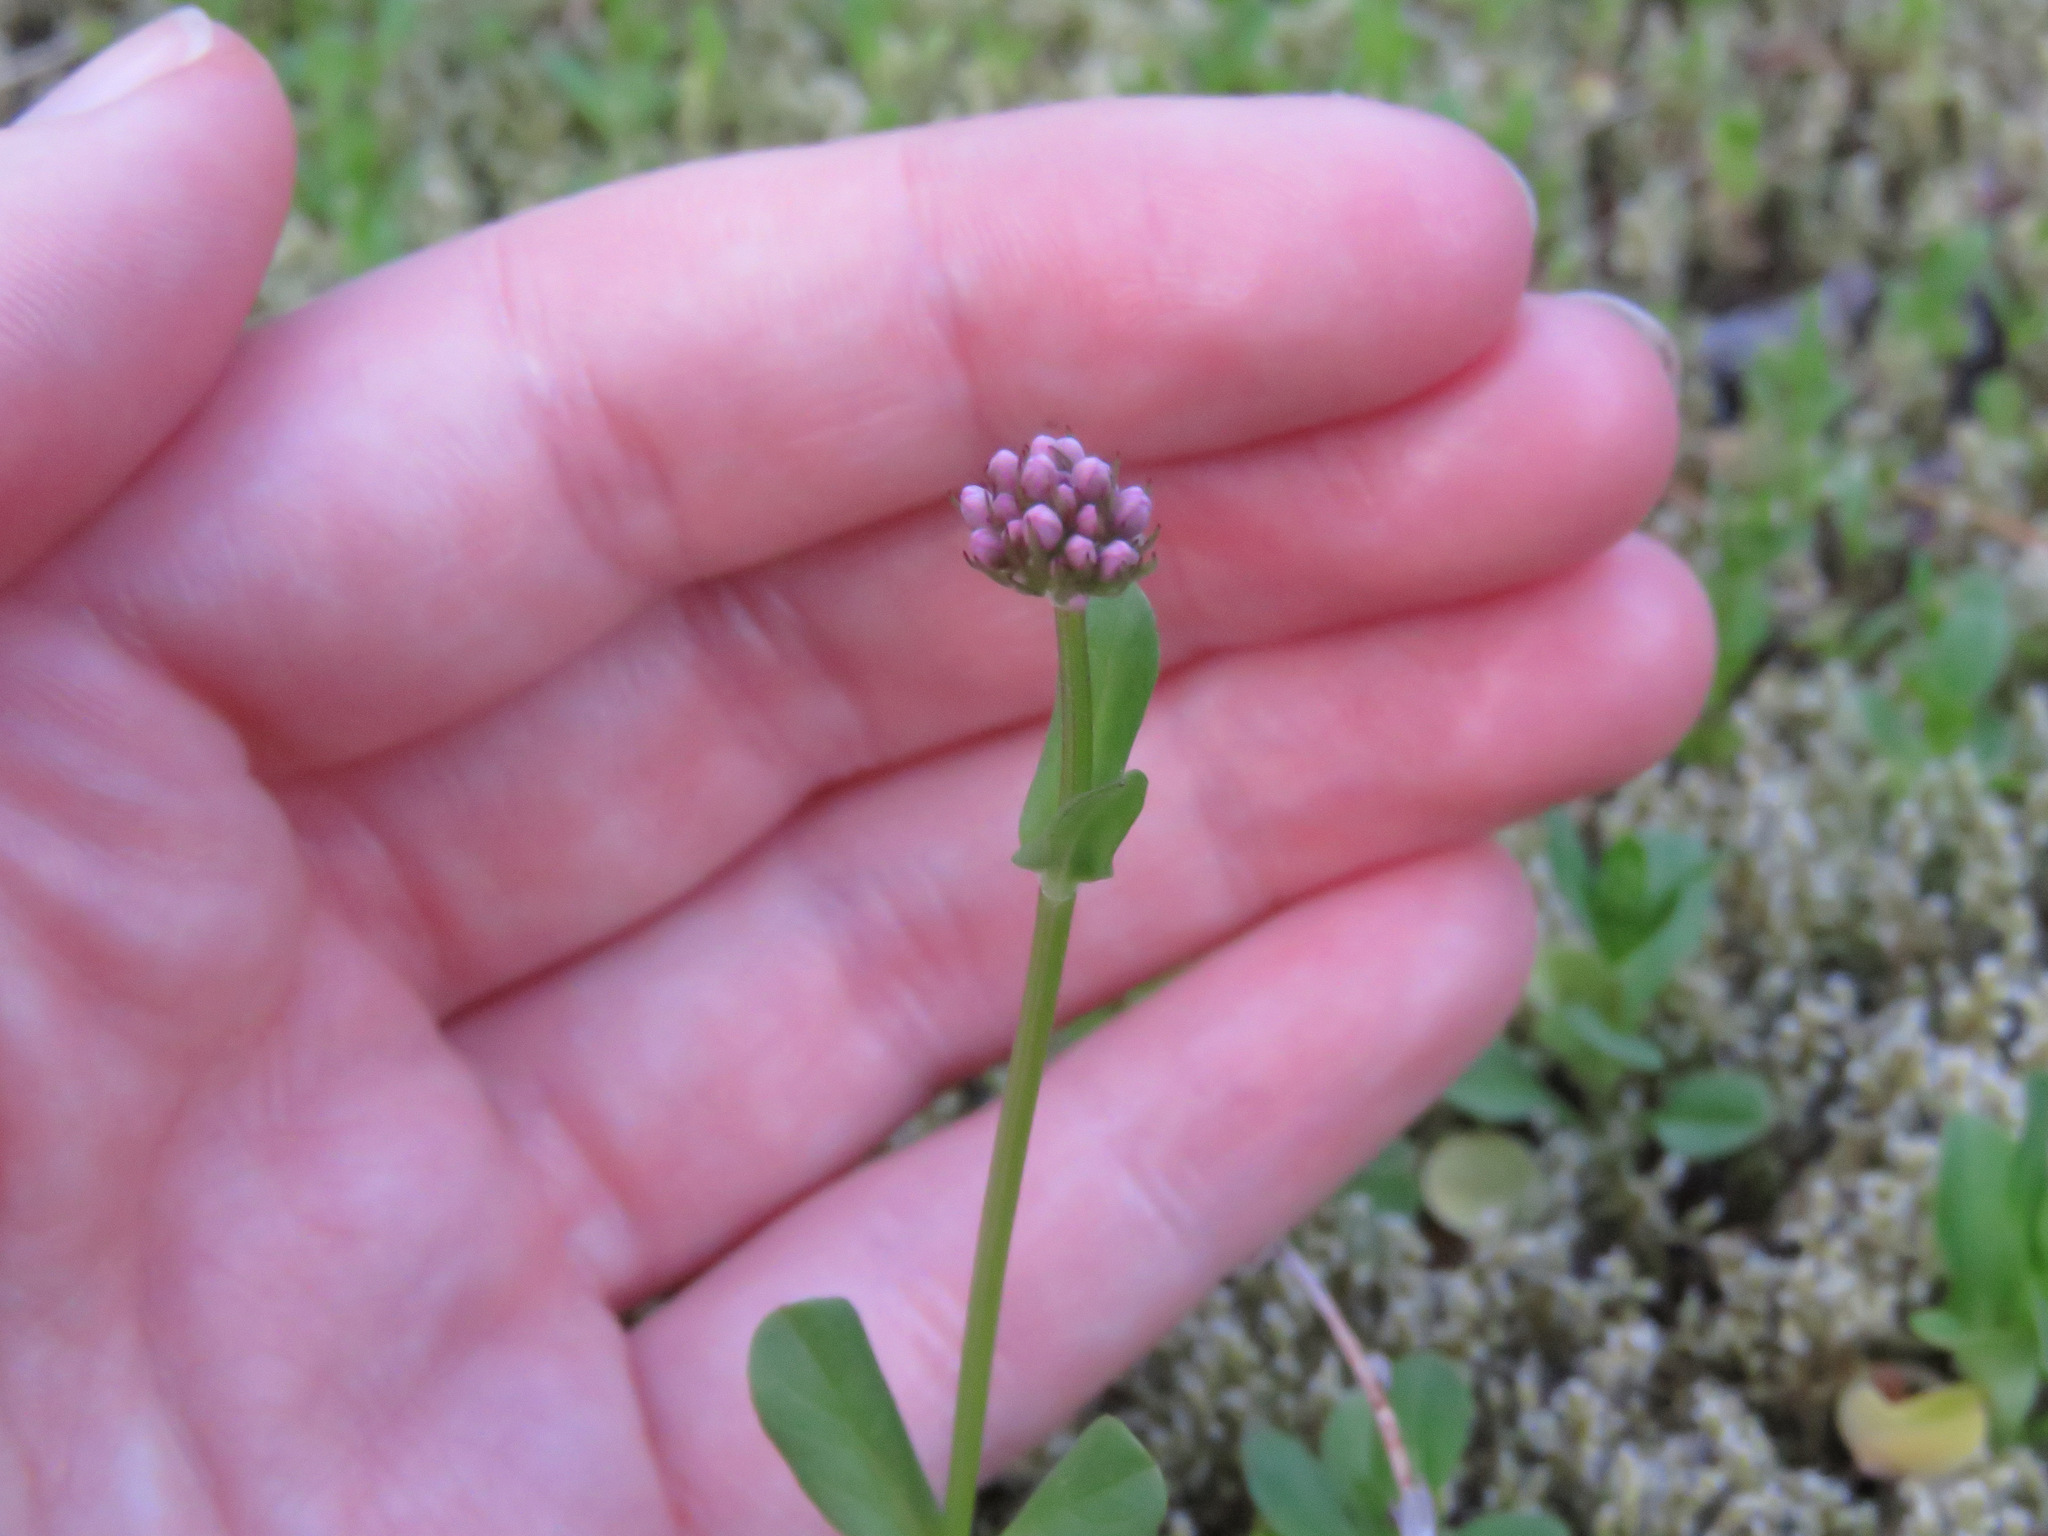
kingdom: Plantae
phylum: Tracheophyta
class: Magnoliopsida
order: Dipsacales
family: Caprifoliaceae
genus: Plectritis
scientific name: Plectritis congesta
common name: Pink plectritis
